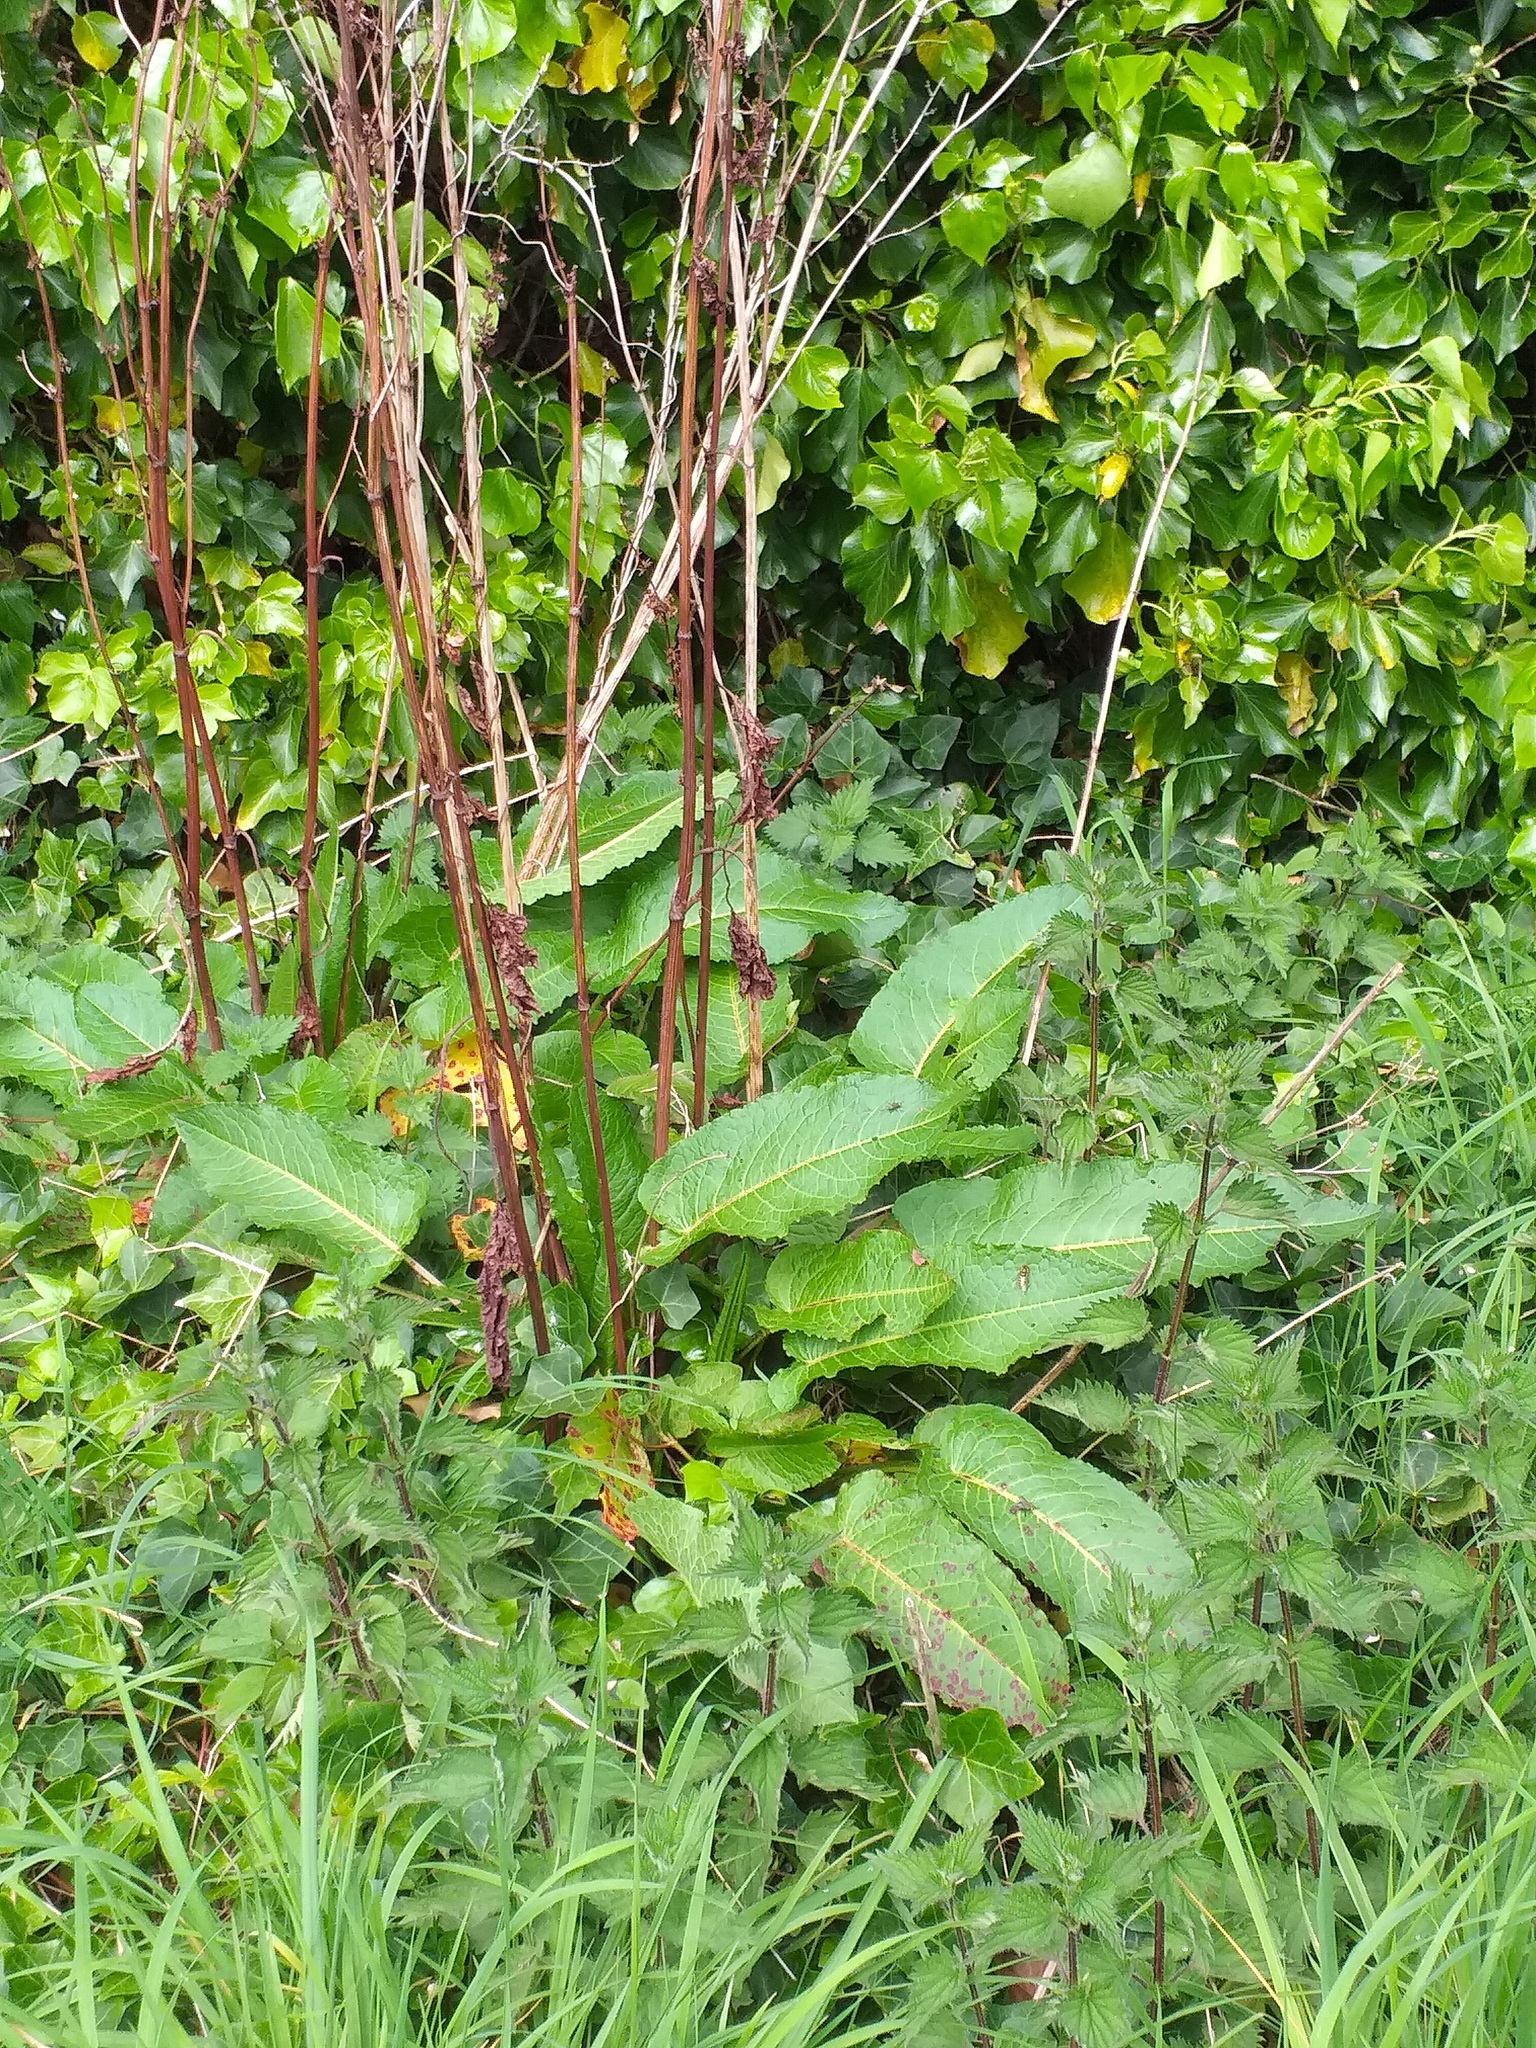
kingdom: Plantae
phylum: Tracheophyta
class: Magnoliopsida
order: Caryophyllales
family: Polygonaceae
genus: Rumex
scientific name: Rumex obtusifolius
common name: Bitter dock
